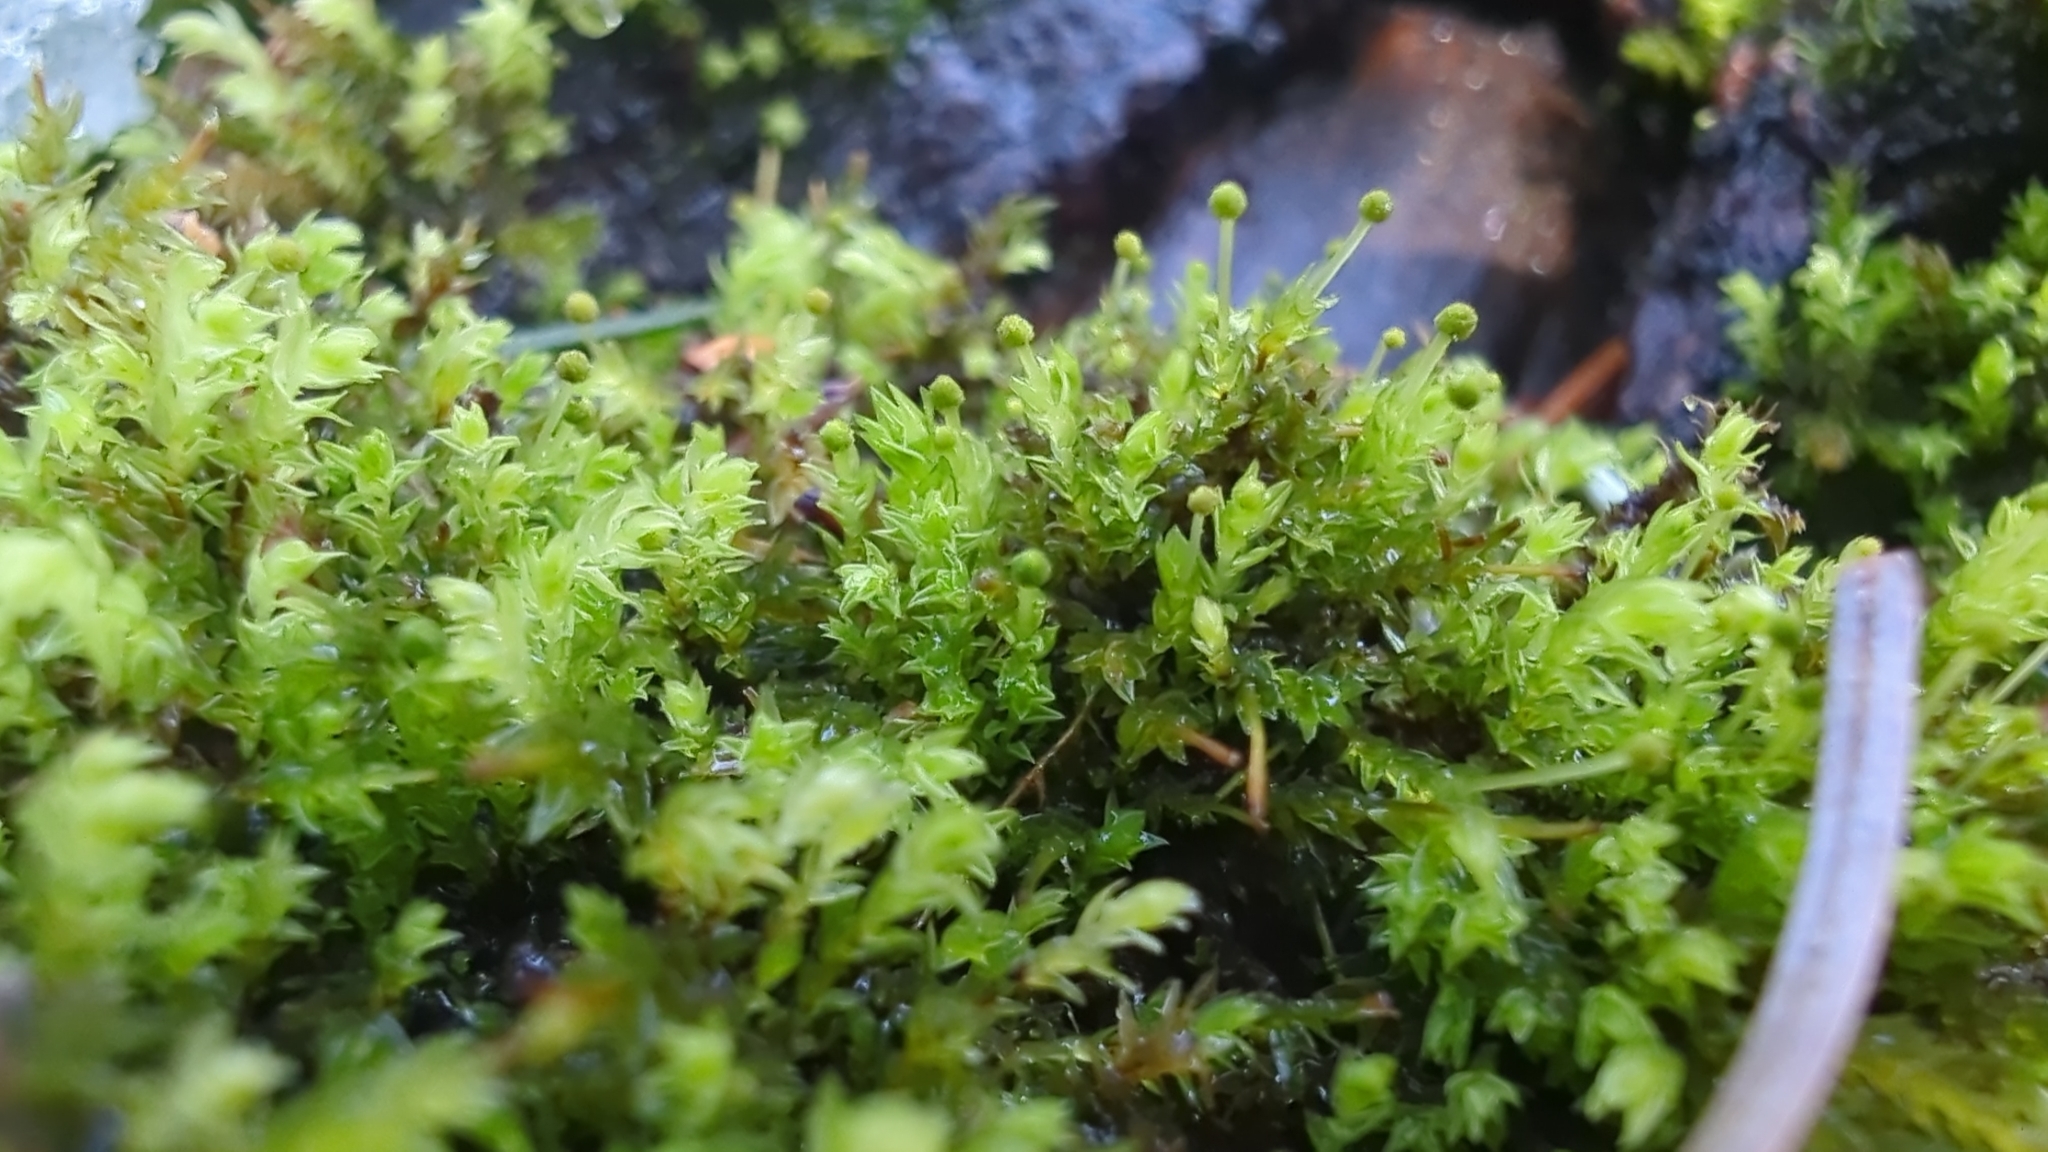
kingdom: Plantae
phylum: Bryophyta
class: Bryopsida
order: Aulacomniales
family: Aulacomniaceae
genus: Aulacomnium
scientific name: Aulacomnium androgynum
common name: Little groove moss
